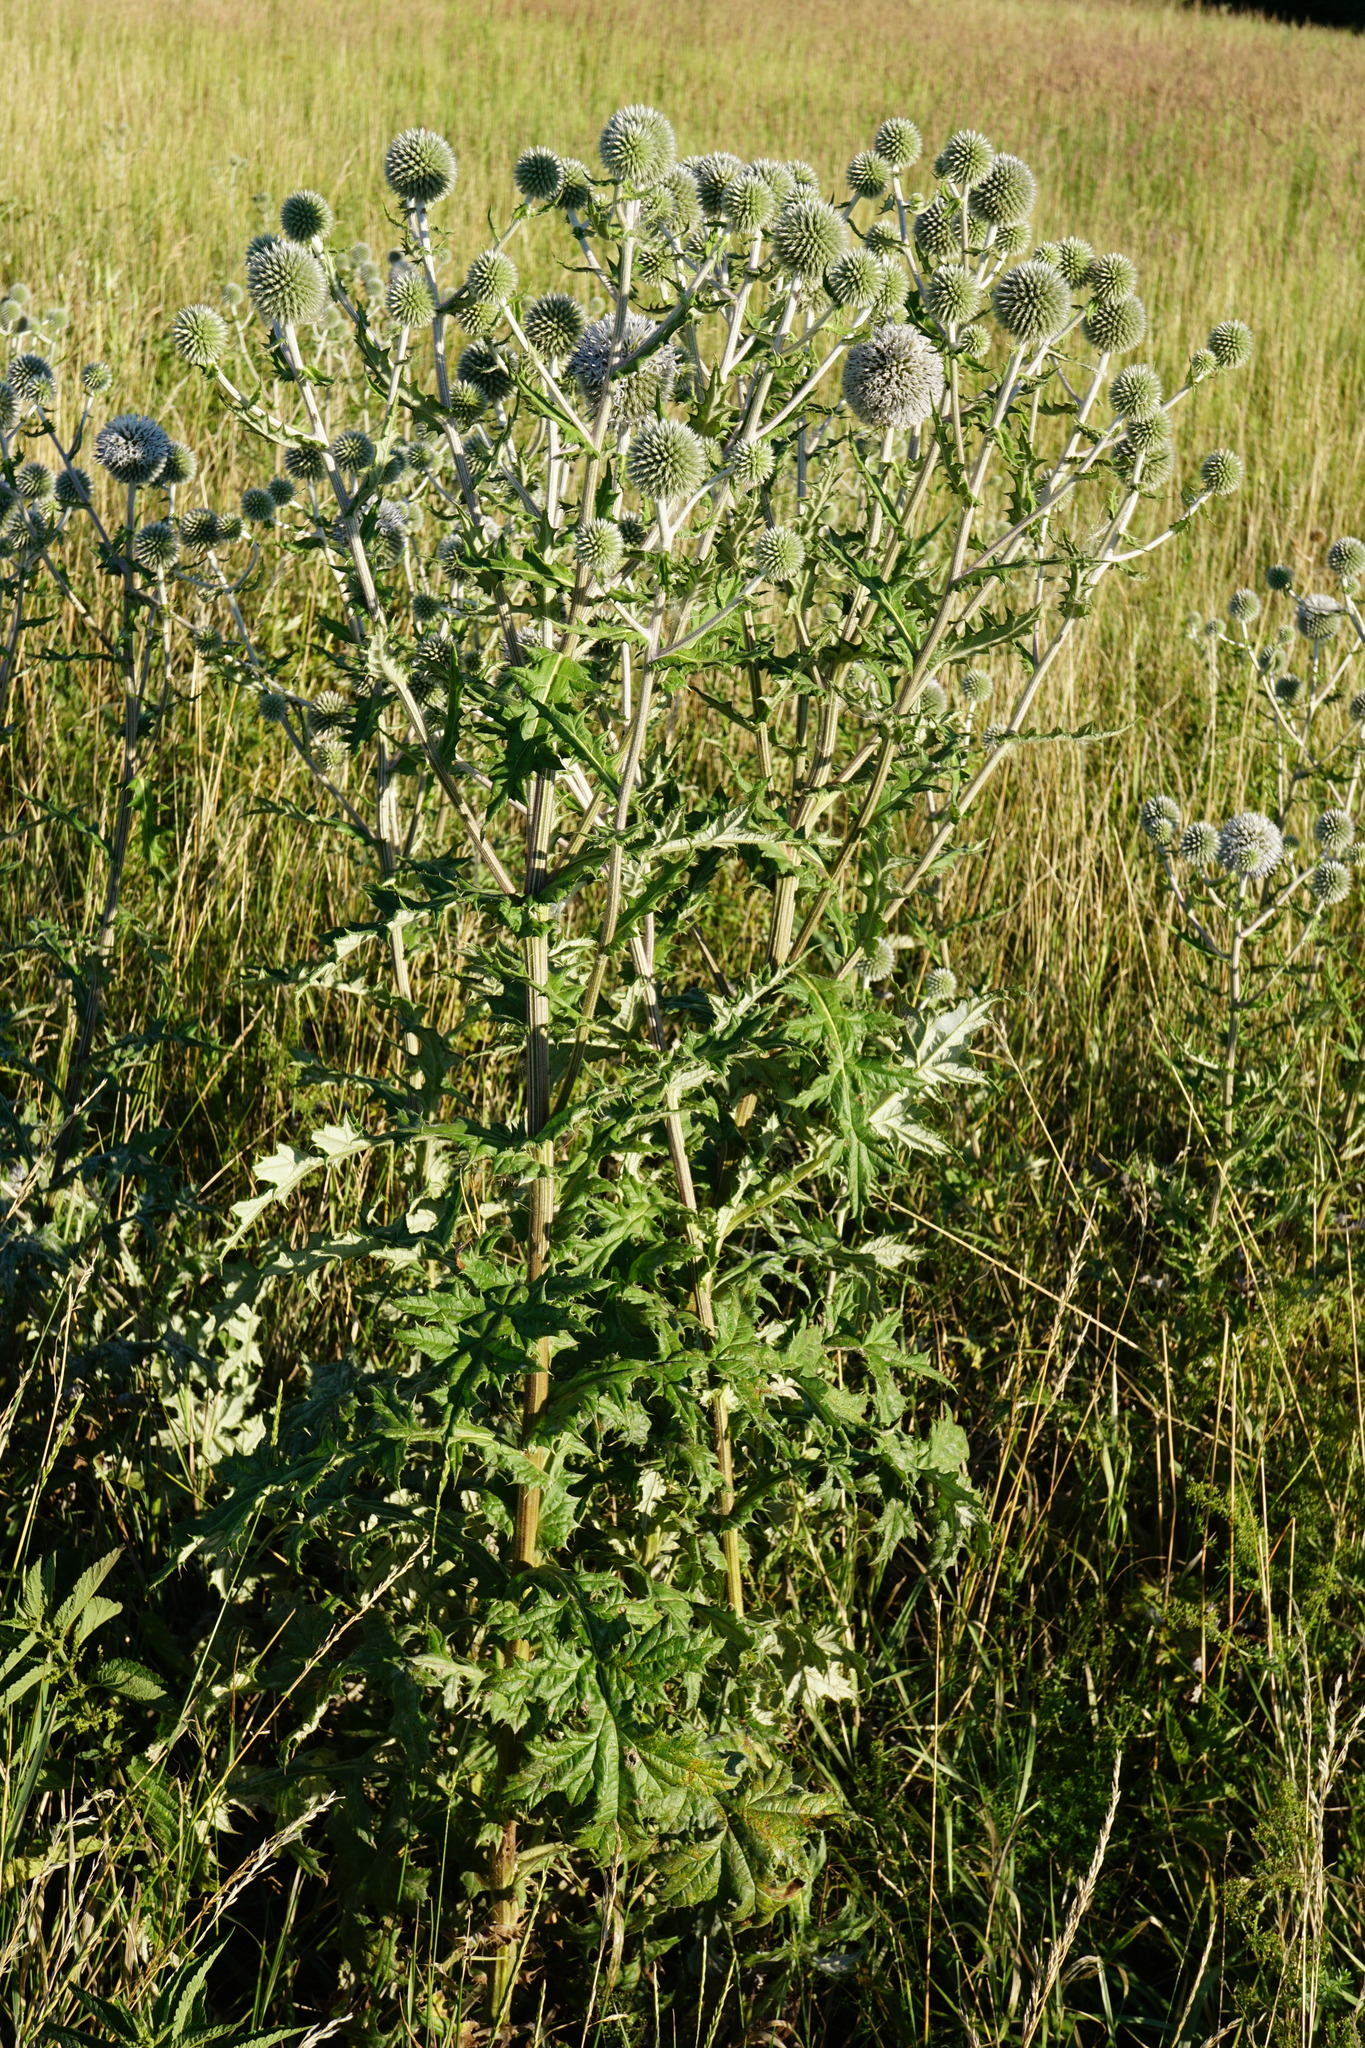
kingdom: Plantae
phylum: Tracheophyta
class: Magnoliopsida
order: Asterales
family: Asteraceae
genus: Echinops
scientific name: Echinops sphaerocephalus
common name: Glandular globe-thistle
